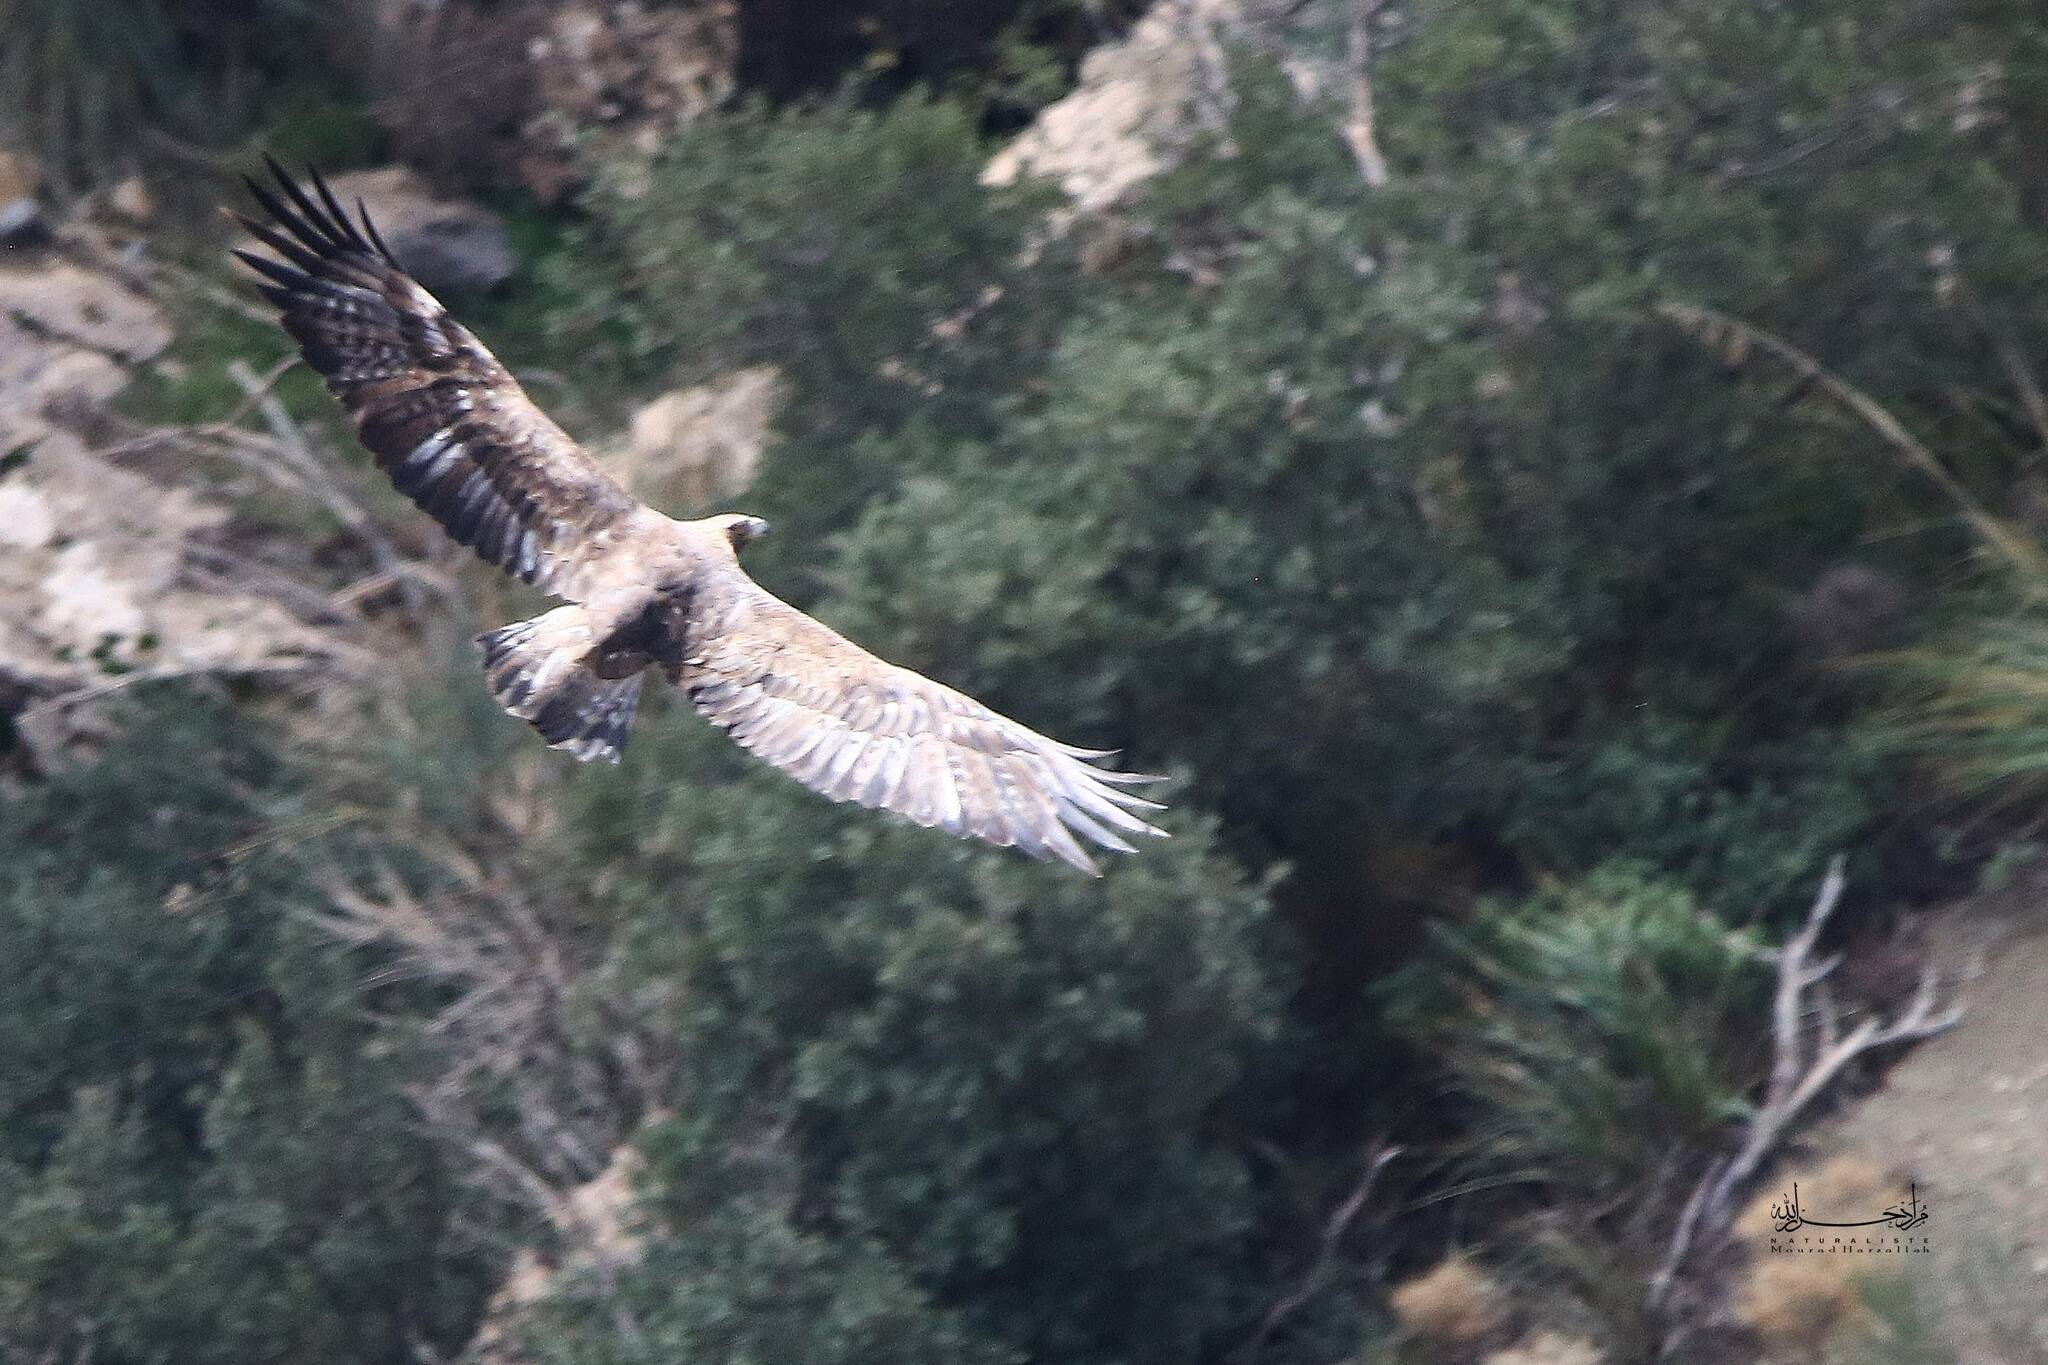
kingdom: Animalia
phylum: Chordata
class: Aves
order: Accipitriformes
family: Accipitridae
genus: Aquila
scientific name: Aquila chrysaetos
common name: Golden eagle
